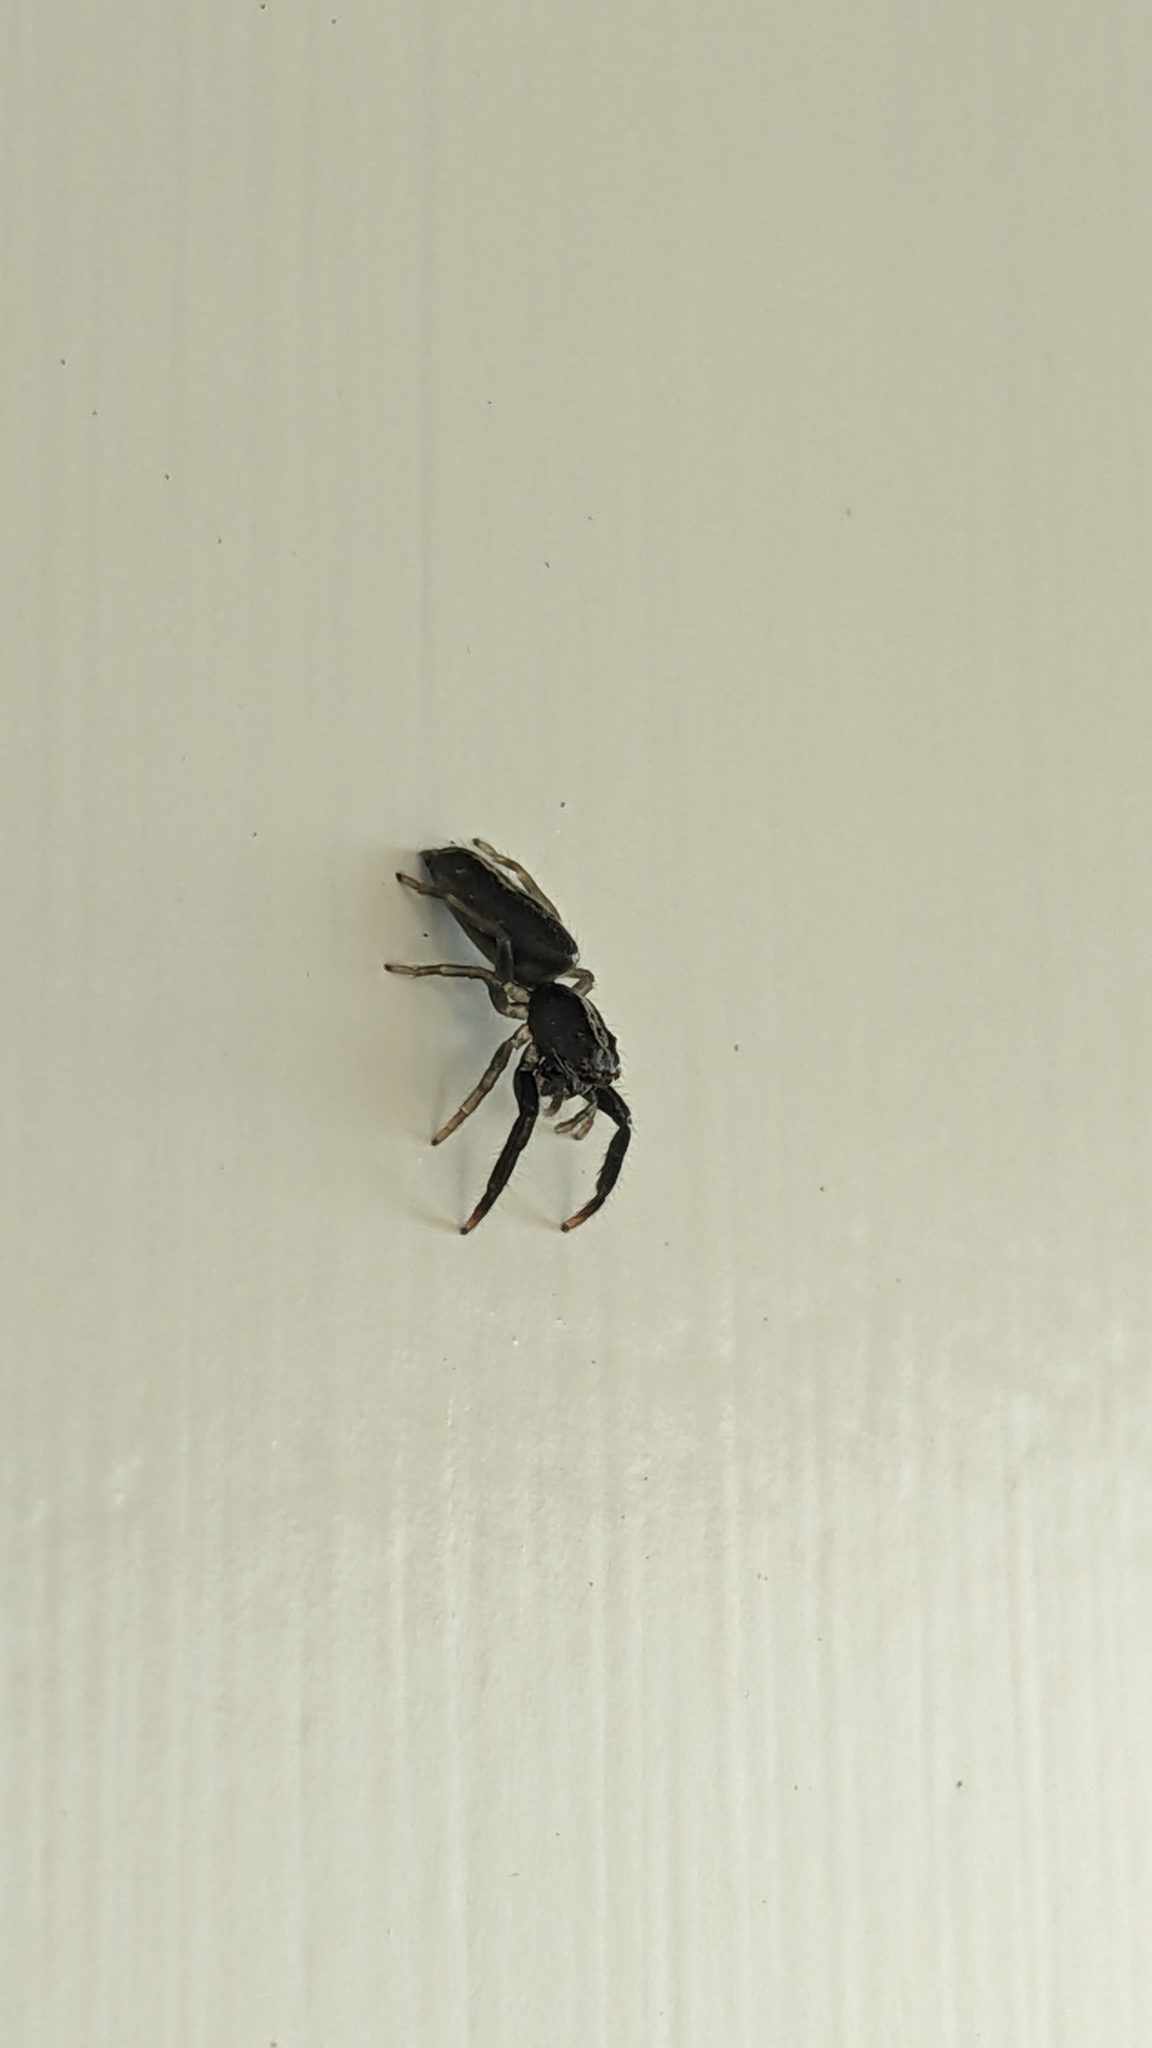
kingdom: Animalia
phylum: Arthropoda
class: Arachnida
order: Araneae
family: Salticidae
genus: Trite
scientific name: Trite planiceps
